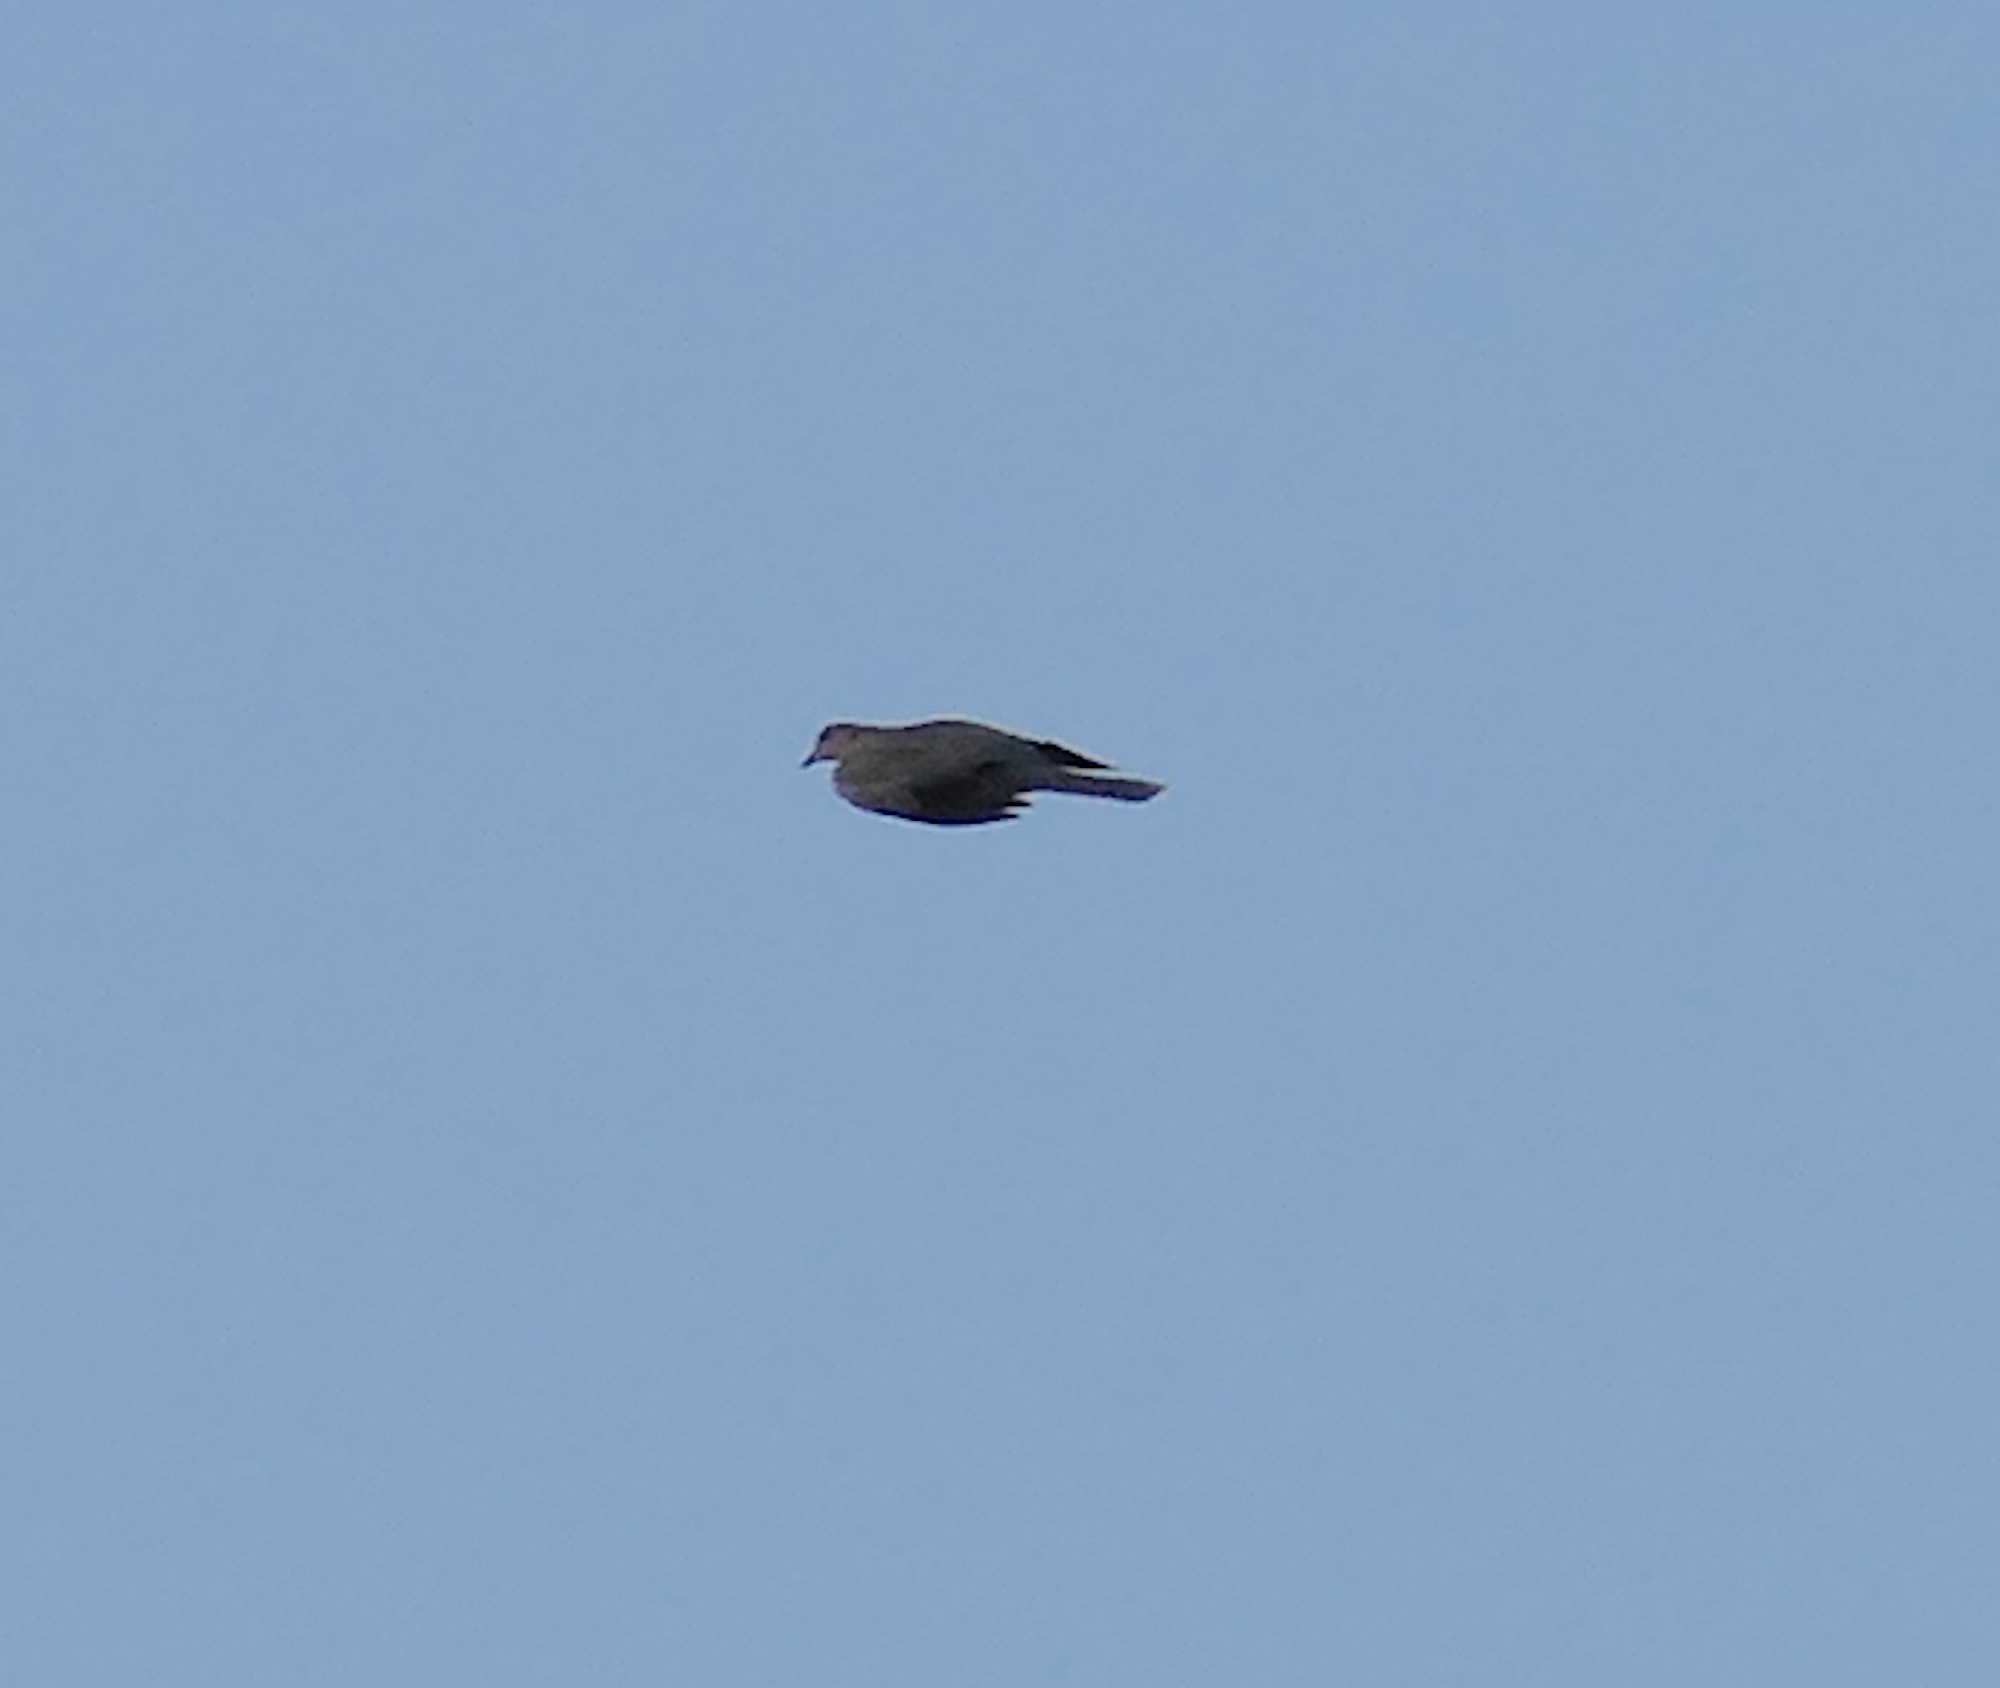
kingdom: Animalia
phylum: Chordata
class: Aves
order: Columbiformes
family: Columbidae
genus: Streptopelia
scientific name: Streptopelia decaocto
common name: Eurasian collared dove
